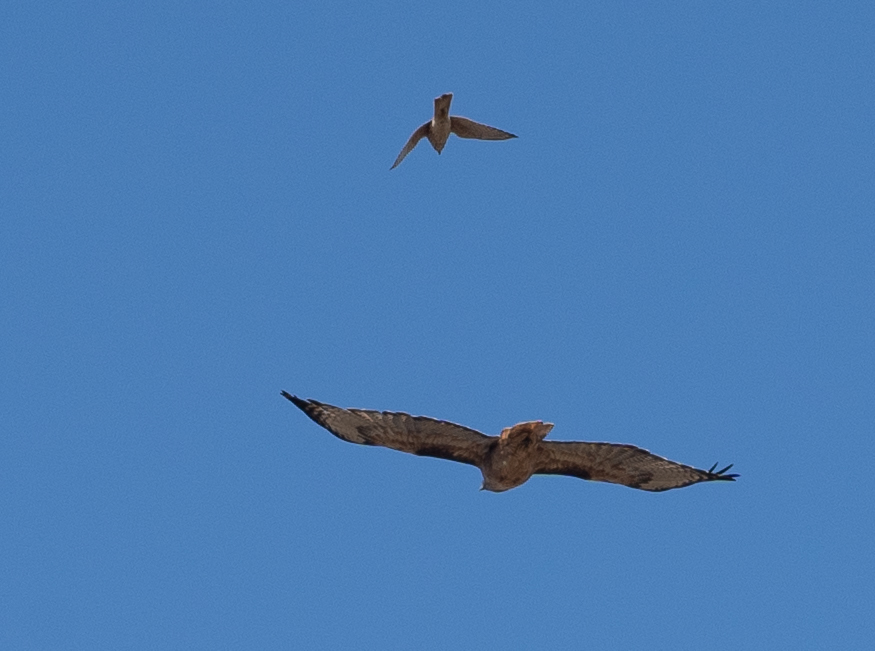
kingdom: Animalia
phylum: Chordata
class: Aves
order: Falconiformes
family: Falconidae
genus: Falco
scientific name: Falco sparverius
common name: American kestrel
